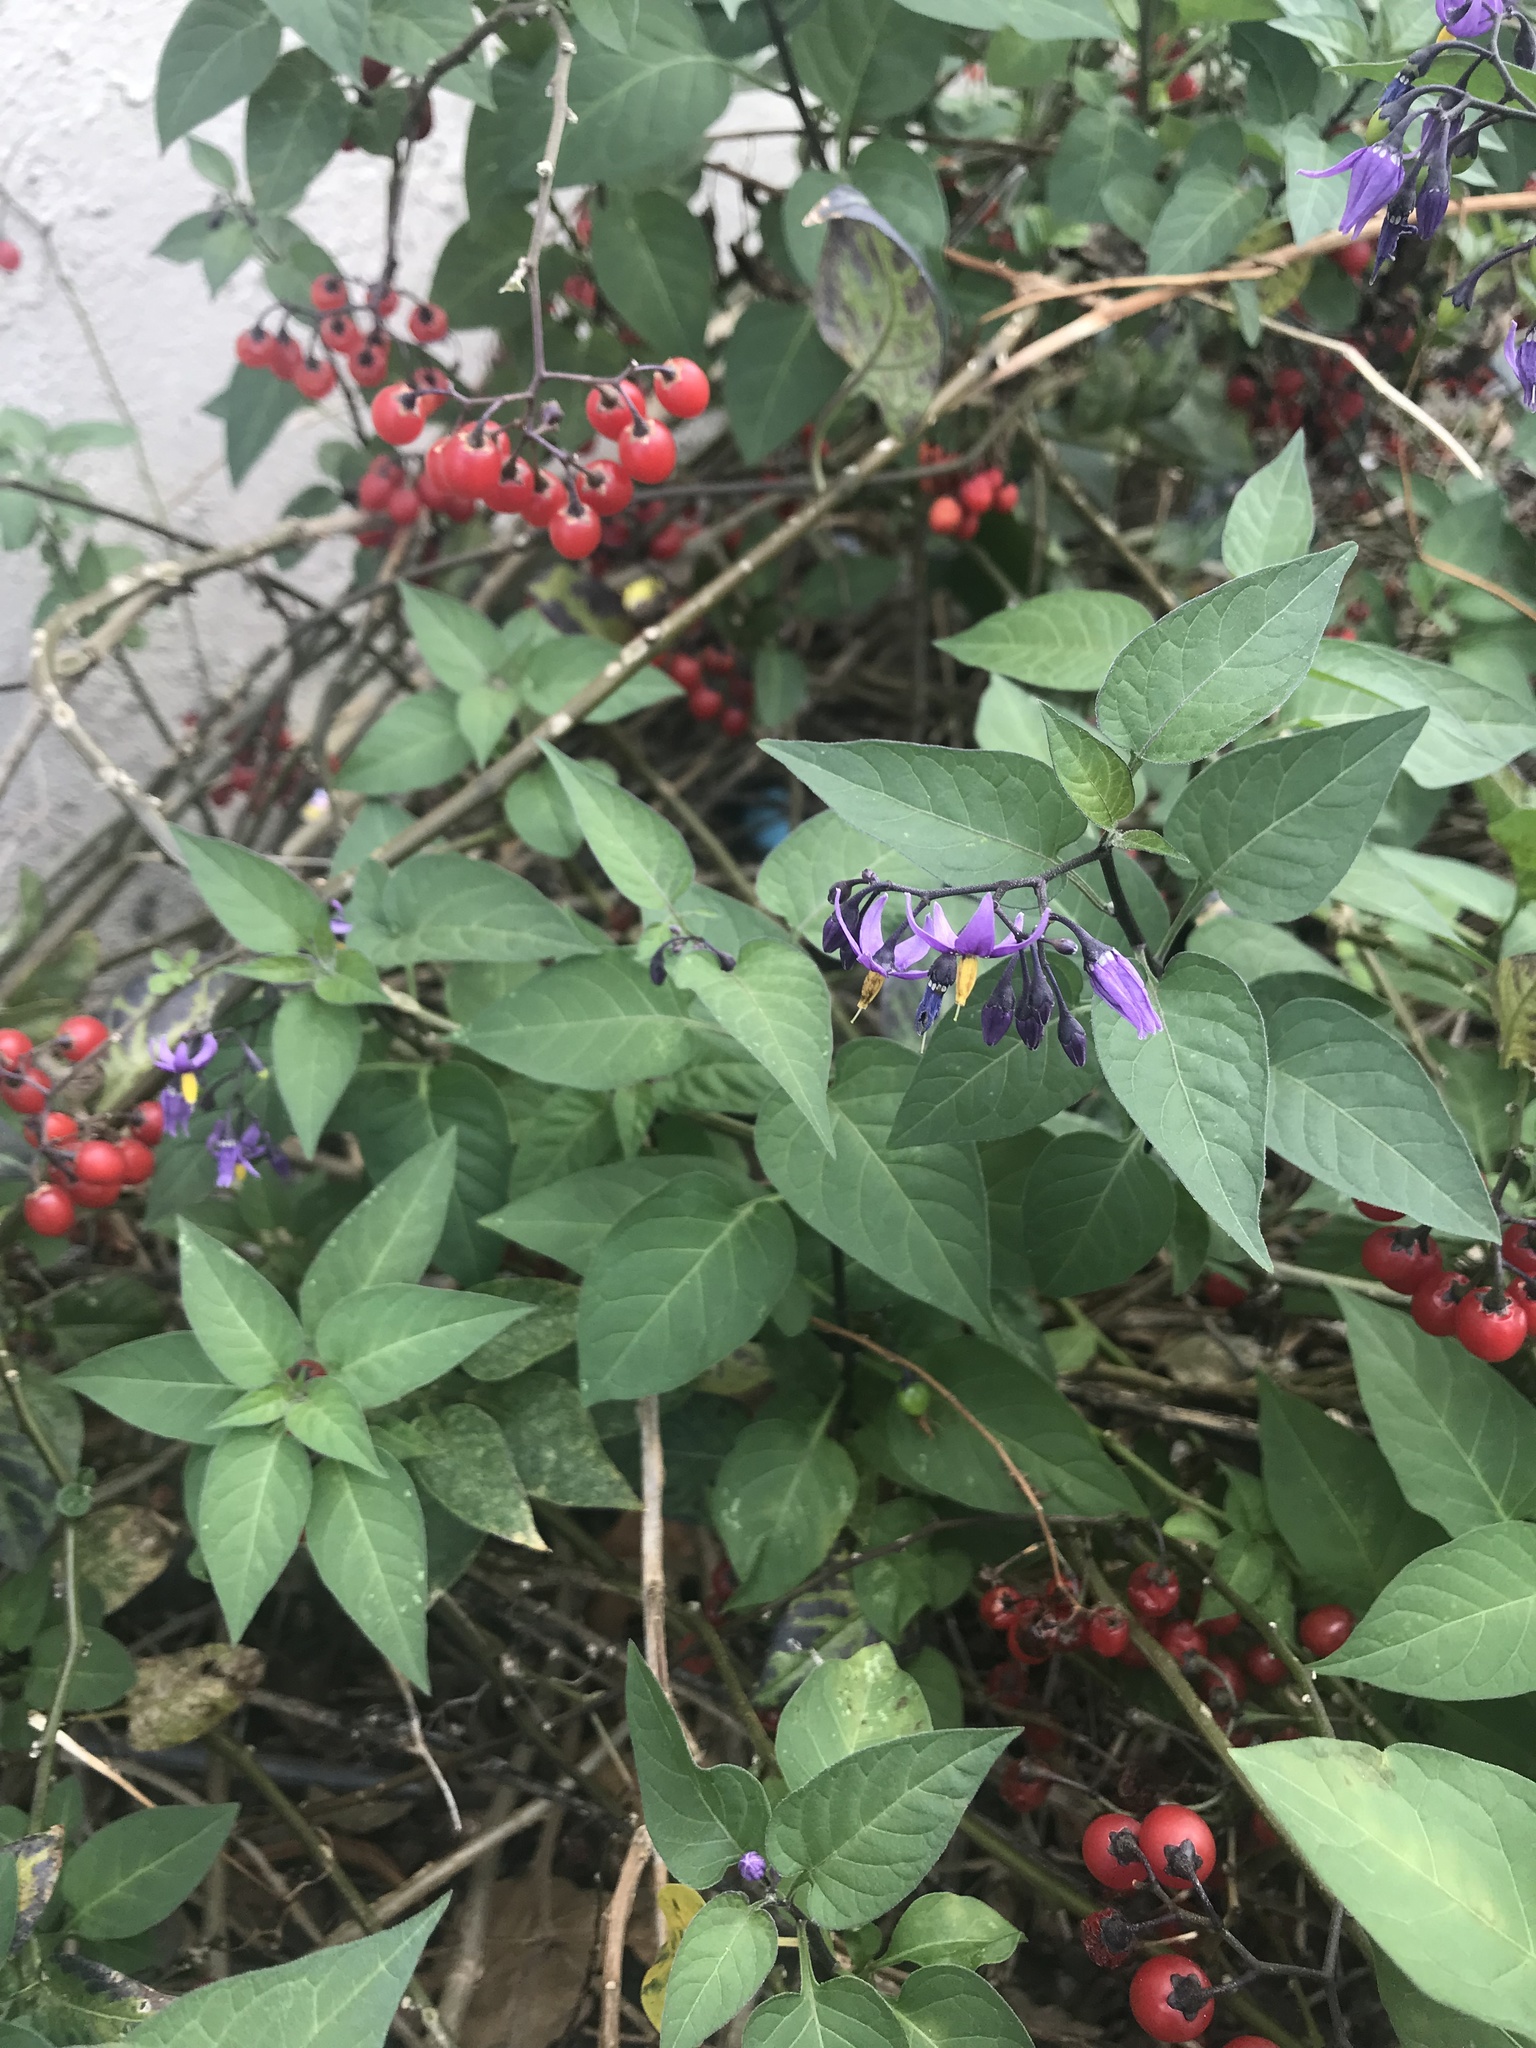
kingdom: Plantae
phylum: Tracheophyta
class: Magnoliopsida
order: Solanales
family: Solanaceae
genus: Solanum
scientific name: Solanum dulcamara
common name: Climbing nightshade
